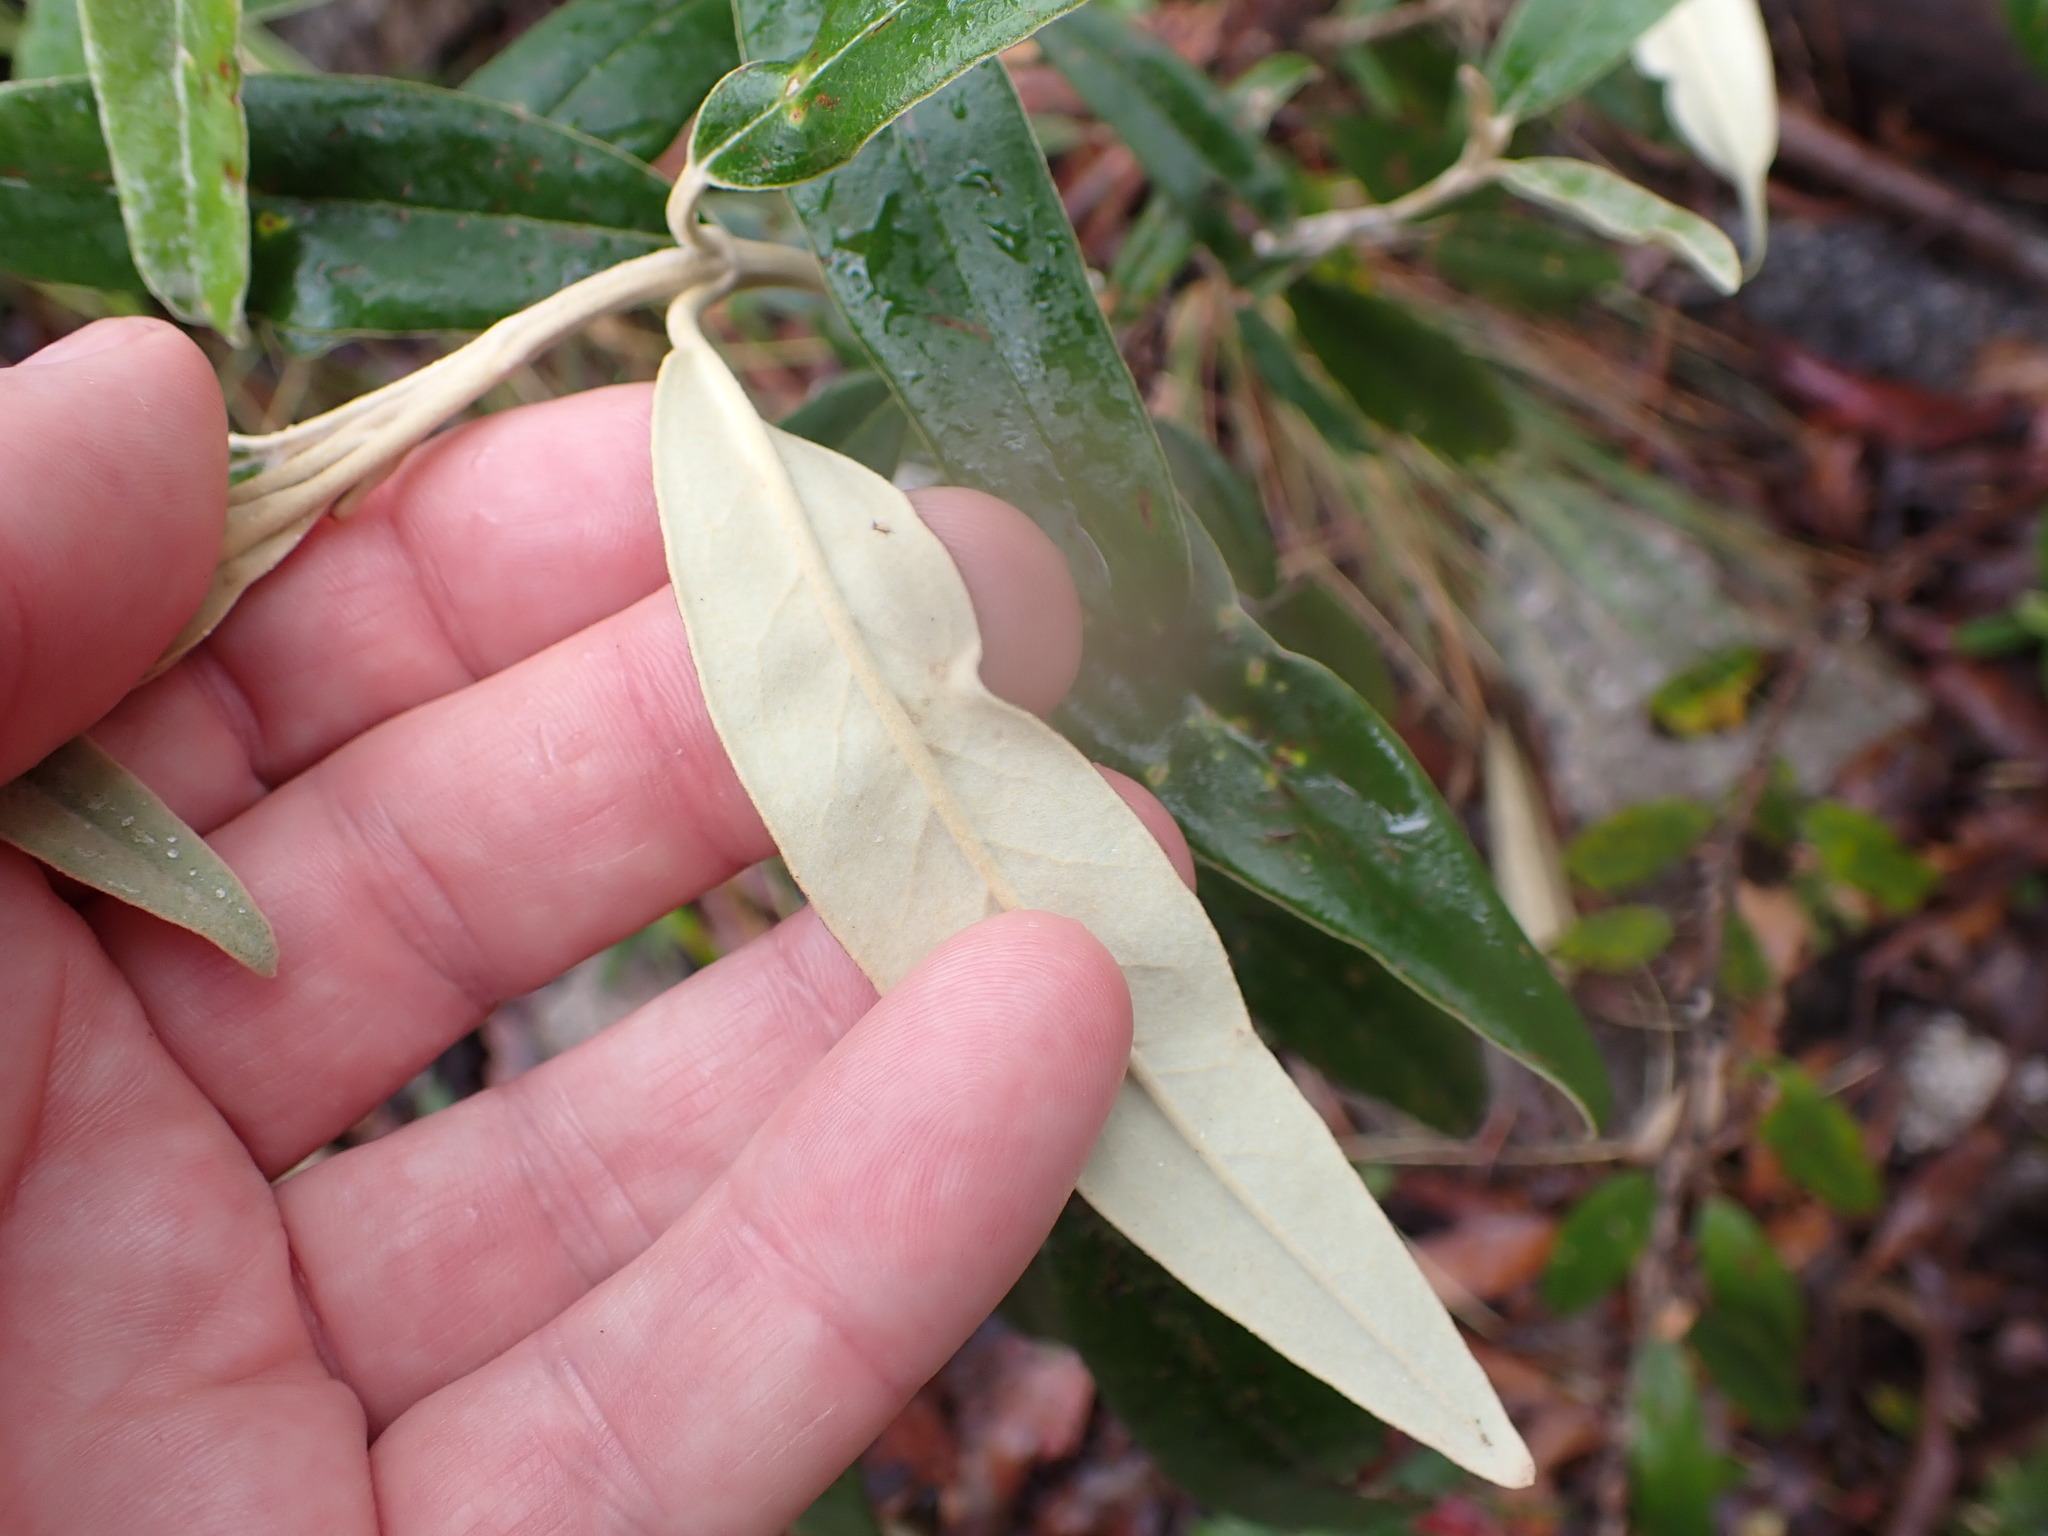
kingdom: Plantae
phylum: Tracheophyta
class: Magnoliopsida
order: Asterales
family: Asteraceae
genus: Olearia
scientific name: Olearia megalophylla
